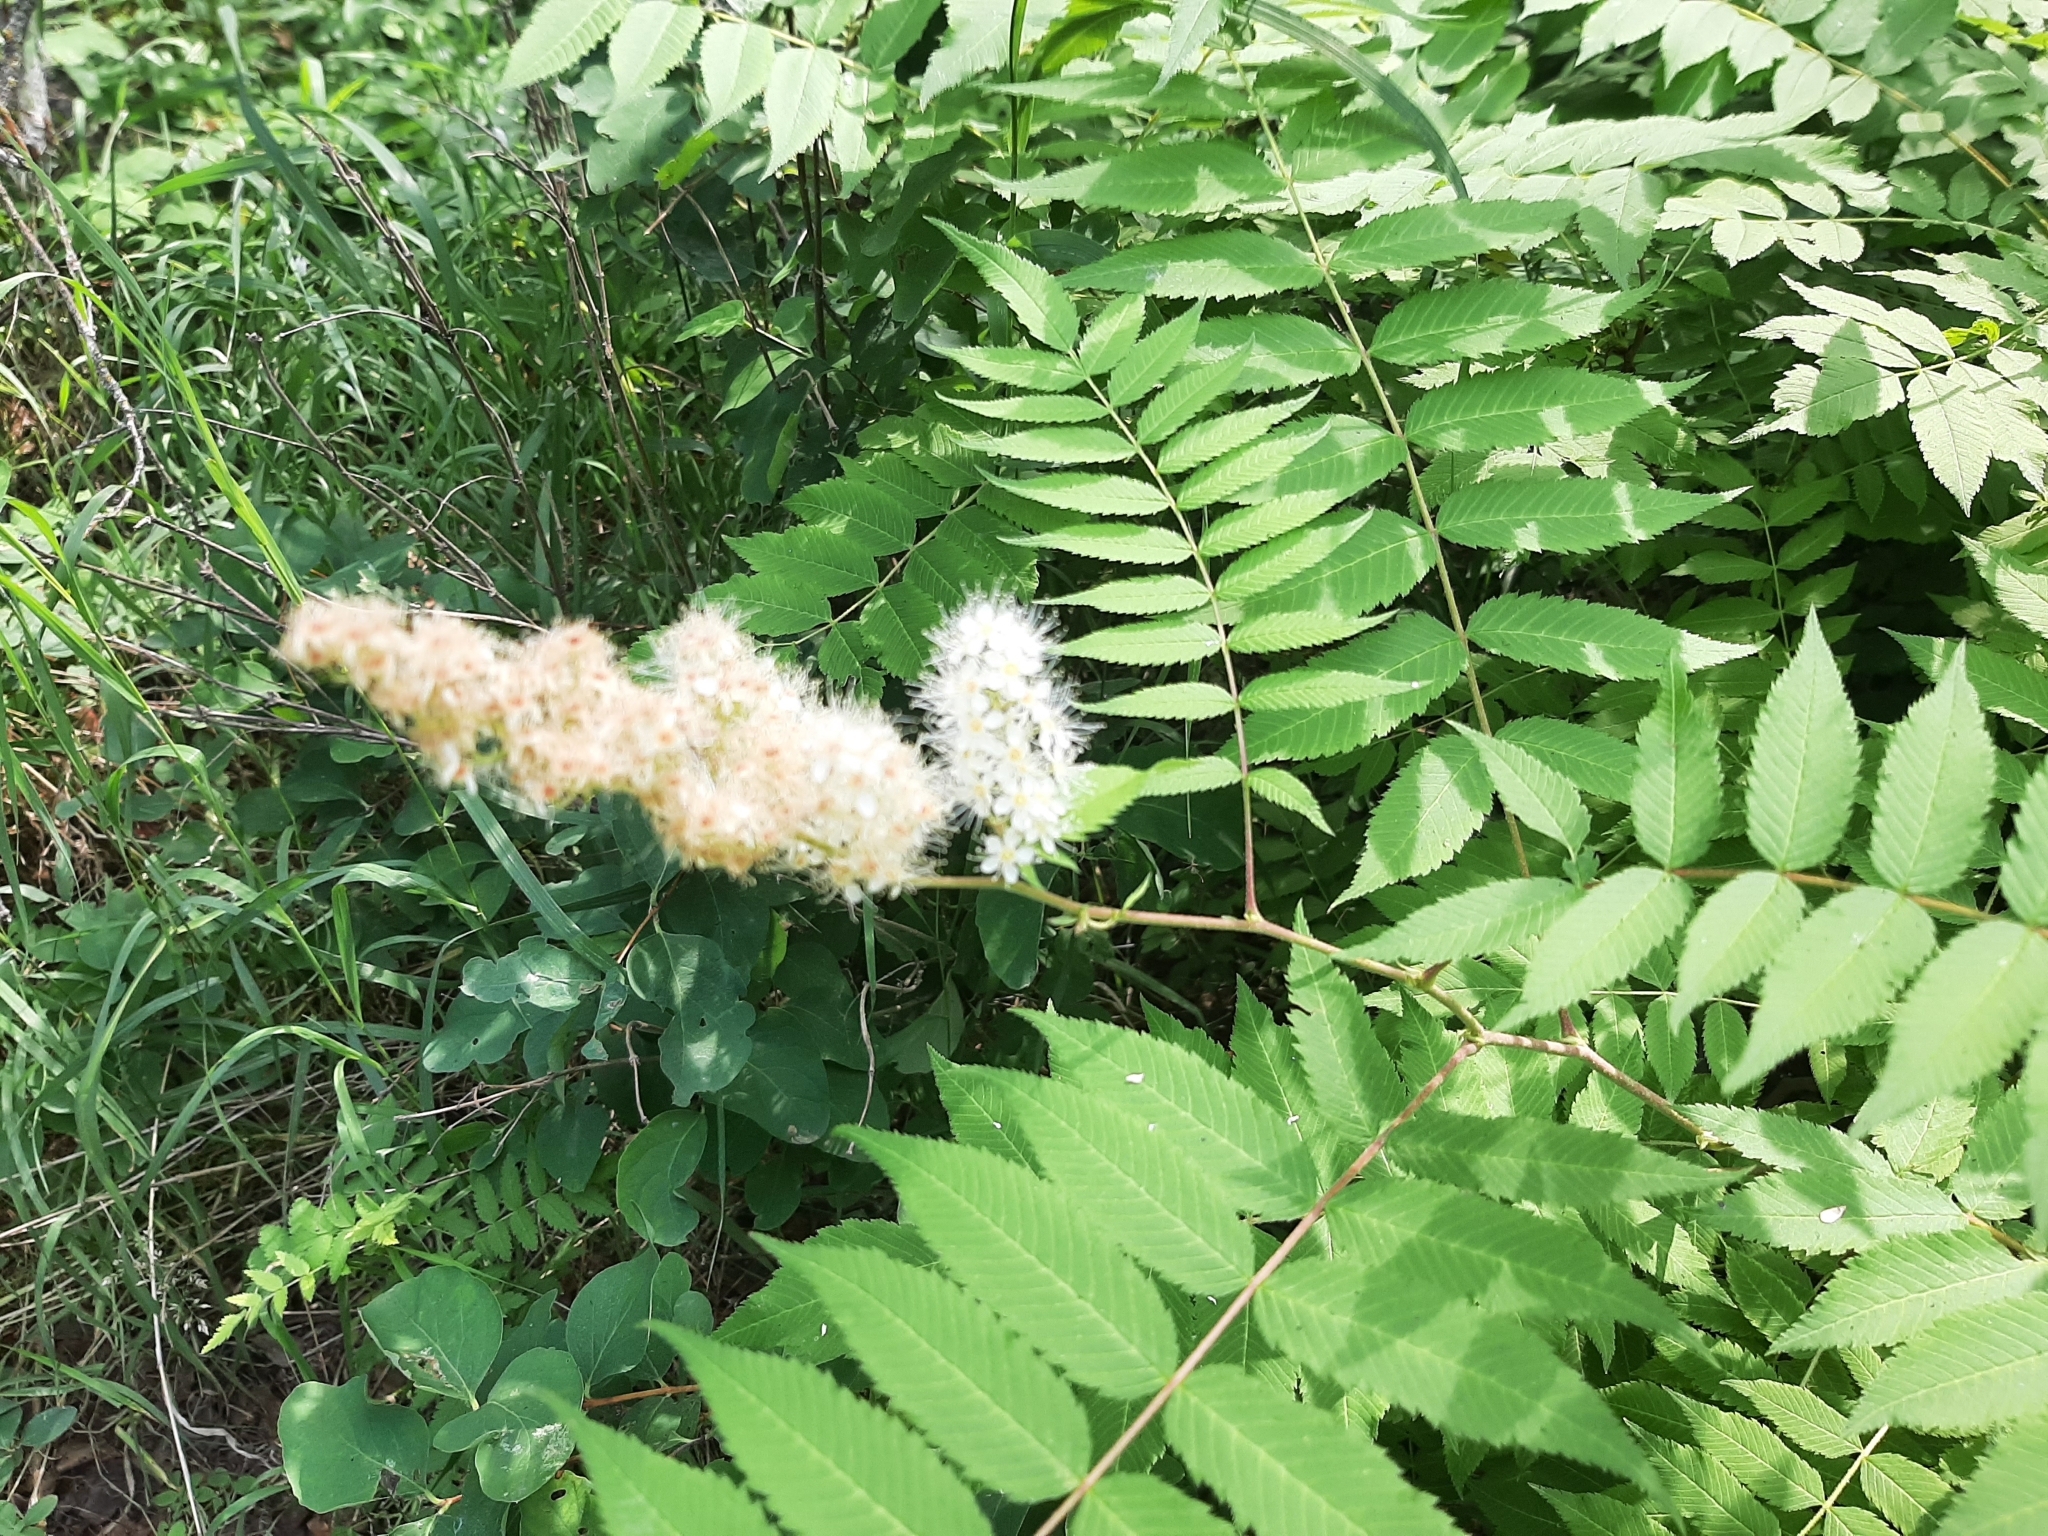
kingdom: Plantae
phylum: Tracheophyta
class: Magnoliopsida
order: Rosales
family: Rosaceae
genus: Sorbaria
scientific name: Sorbaria sorbifolia
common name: False spiraea
